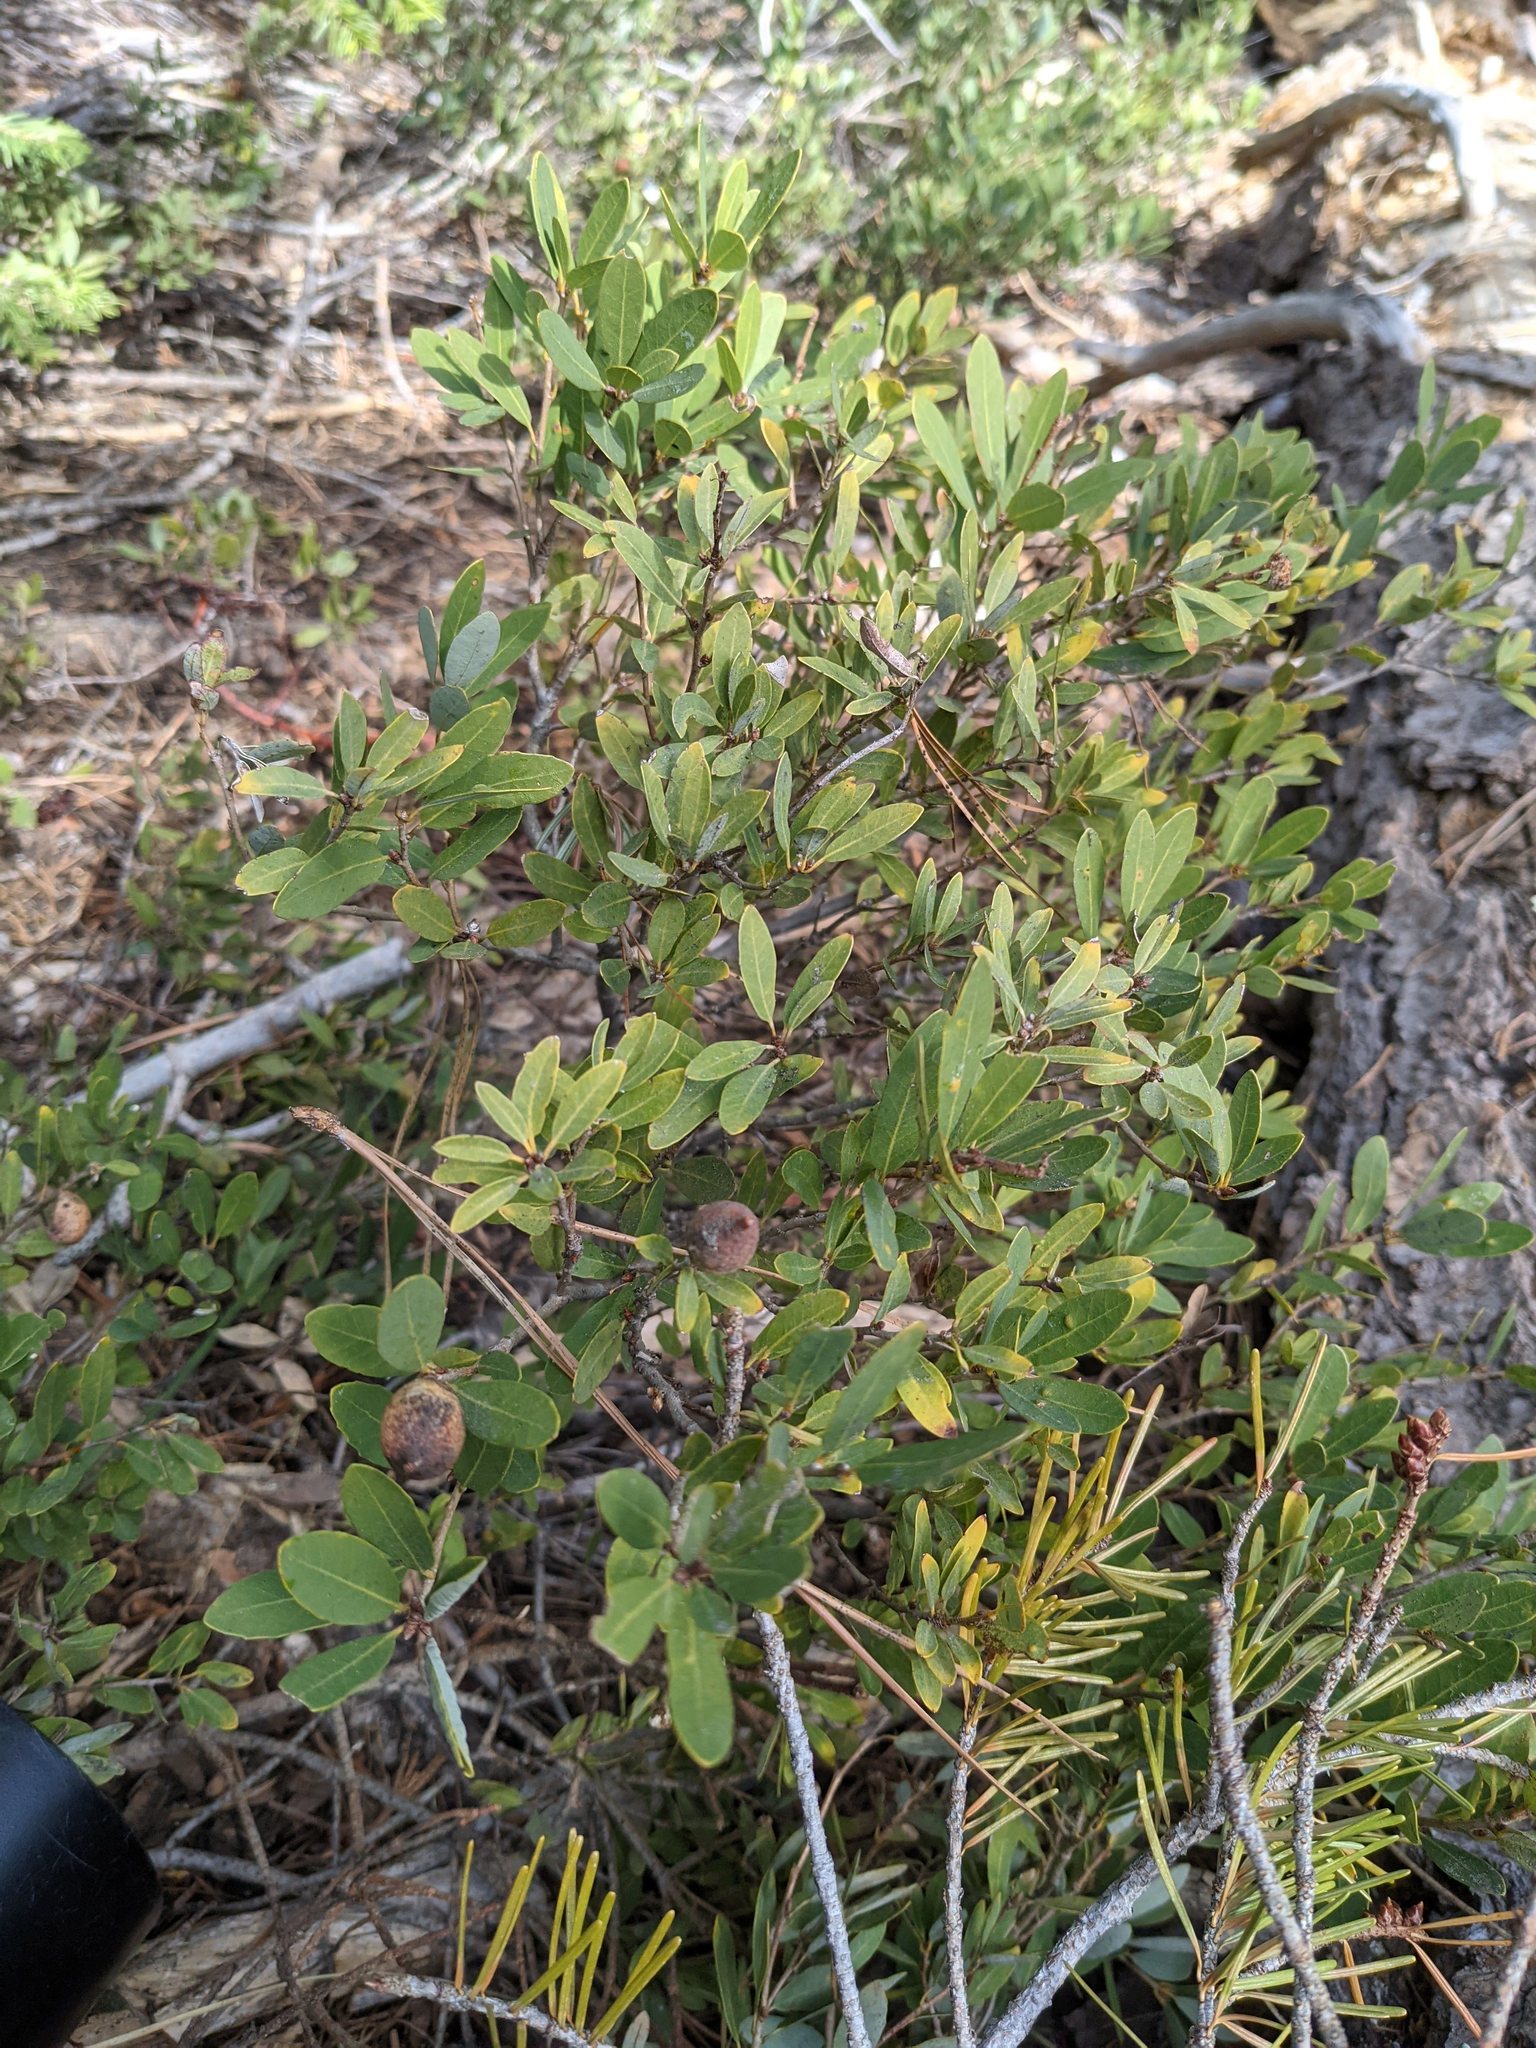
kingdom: Plantae
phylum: Tracheophyta
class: Magnoliopsida
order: Fagales
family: Fagaceae
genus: Quercus
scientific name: Quercus vacciniifolia
